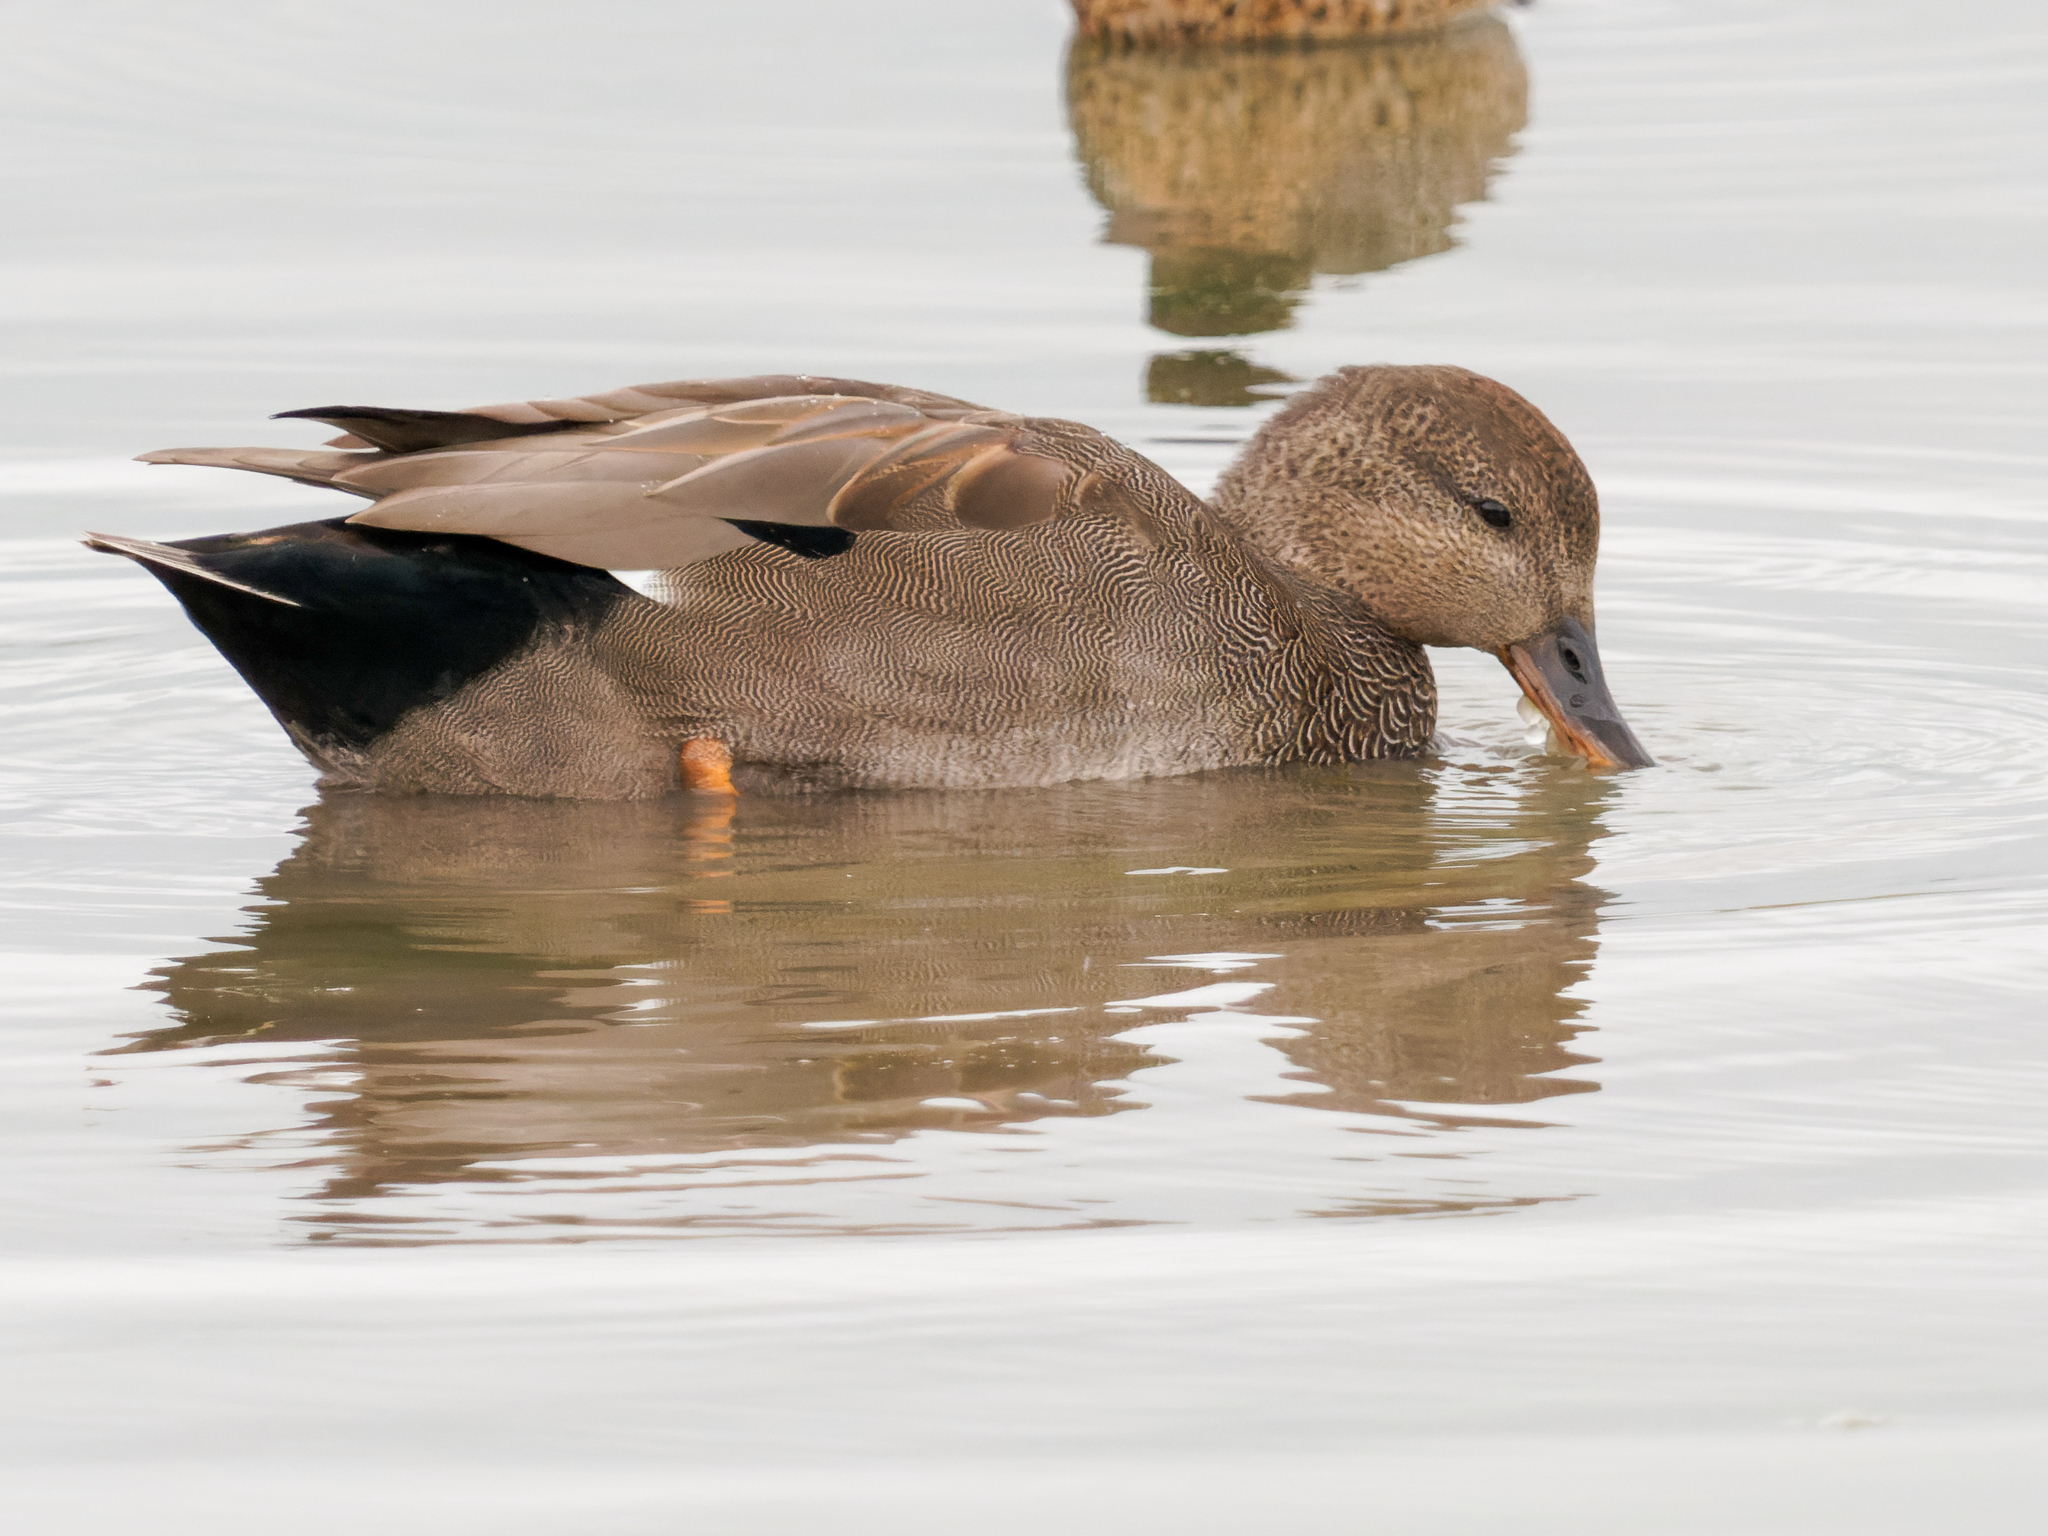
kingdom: Animalia
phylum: Chordata
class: Aves
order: Anseriformes
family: Anatidae
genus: Mareca
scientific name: Mareca strepera
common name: Gadwall
